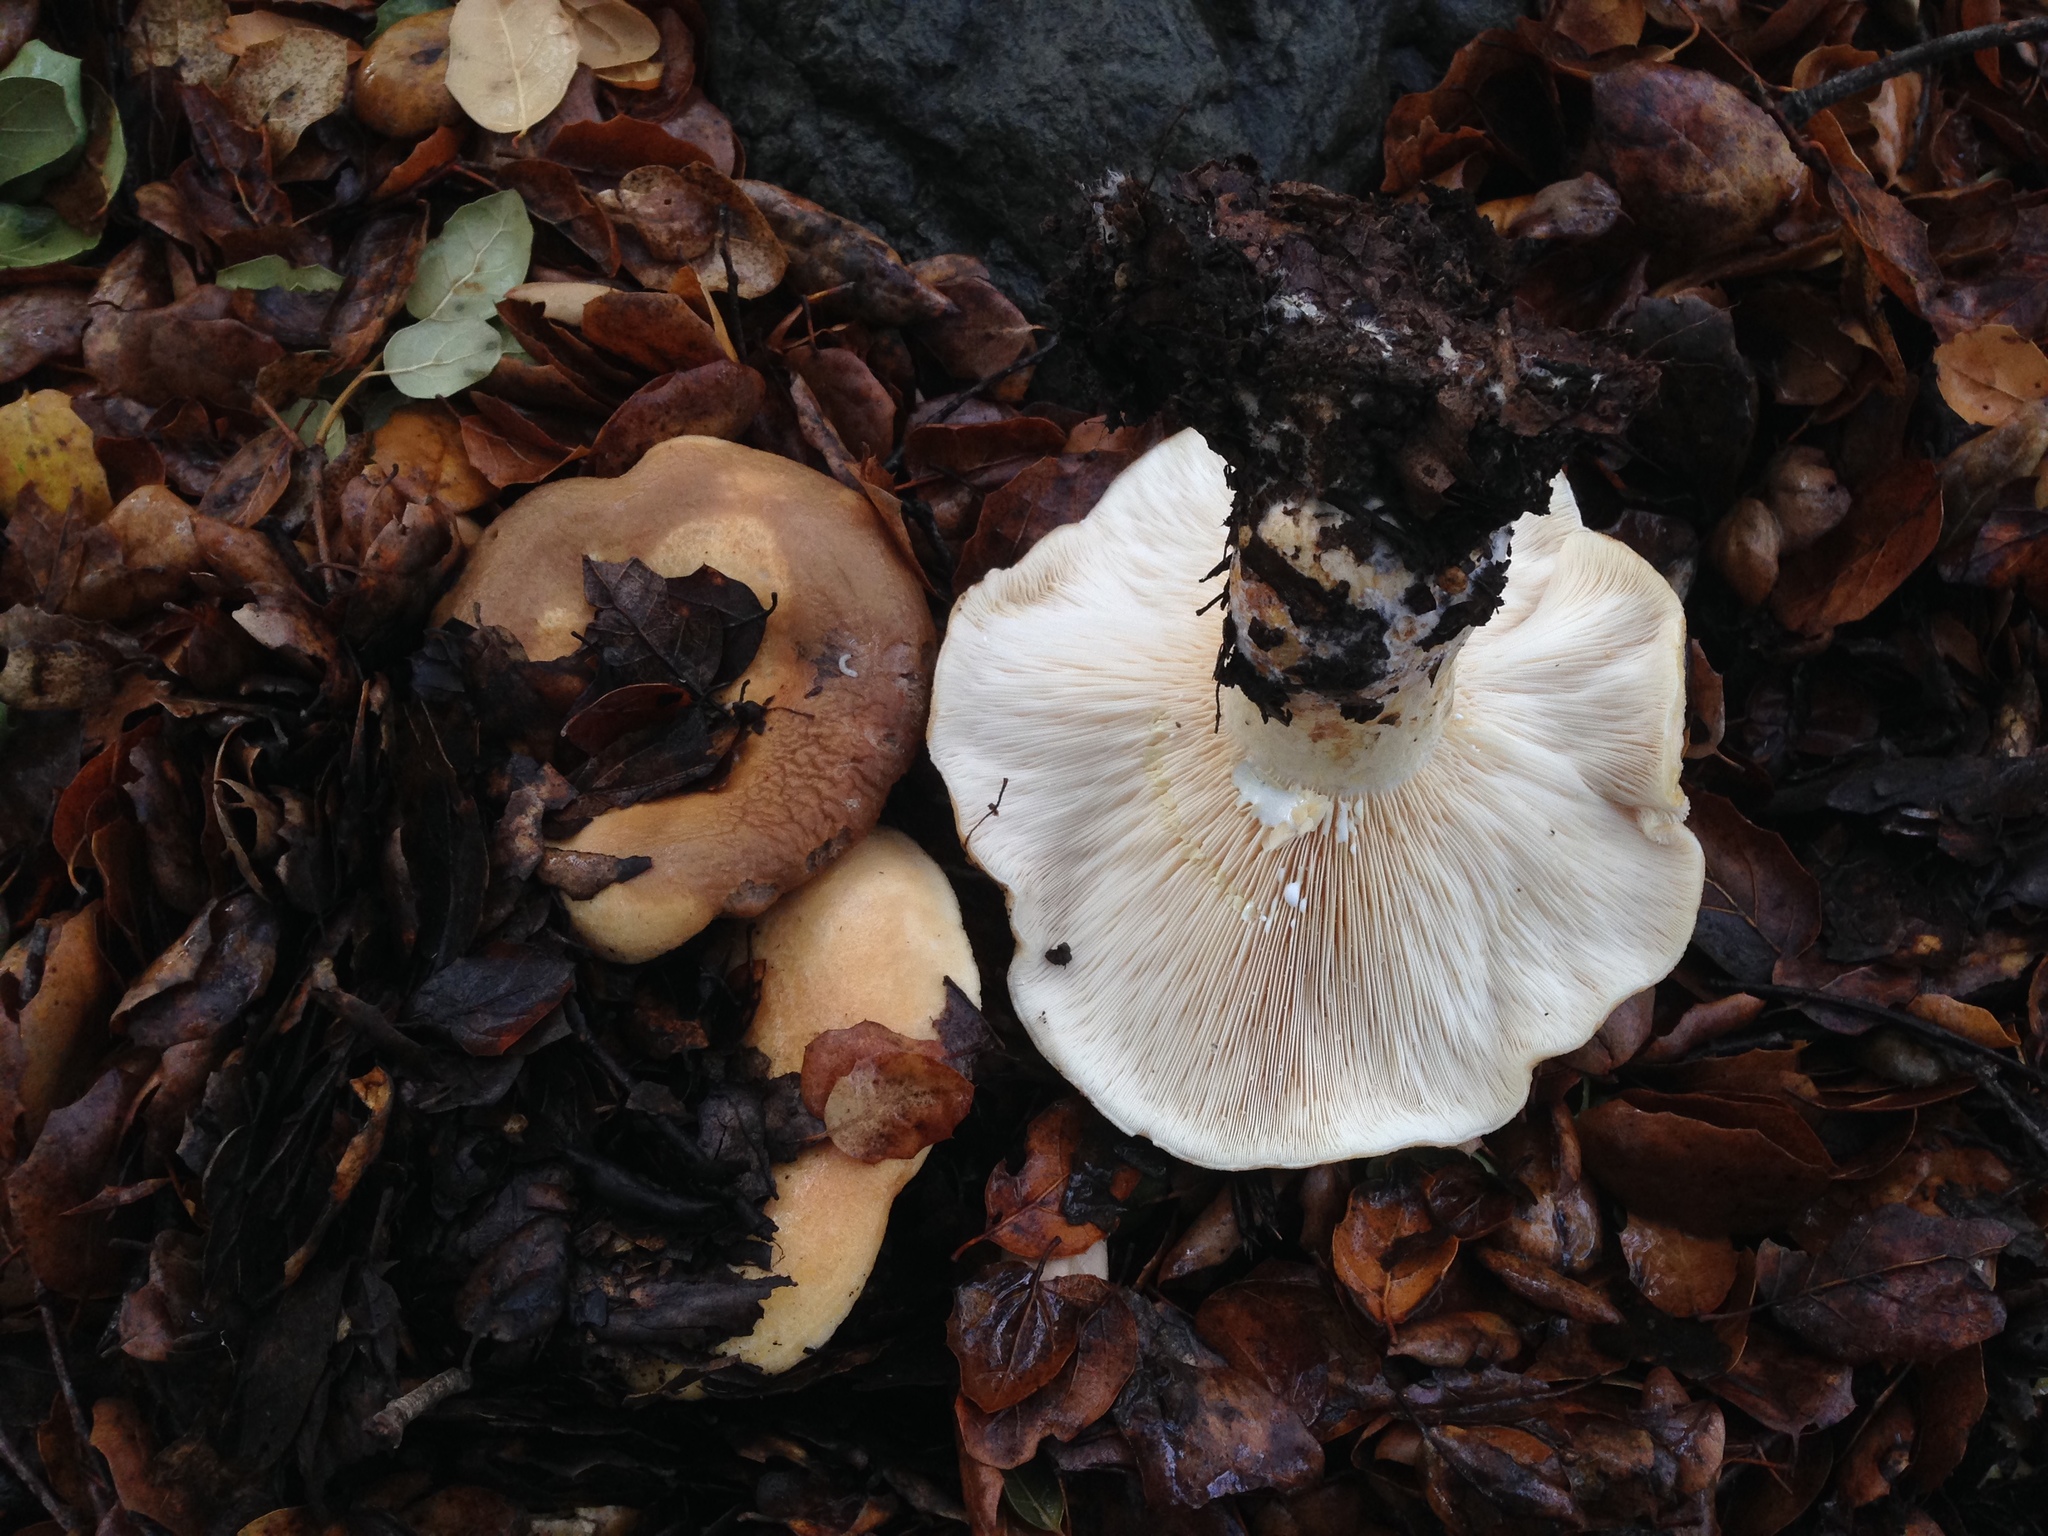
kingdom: Fungi
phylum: Basidiomycota
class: Agaricomycetes
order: Russulales
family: Russulaceae
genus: Lactarius
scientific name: Lactarius alnicola
